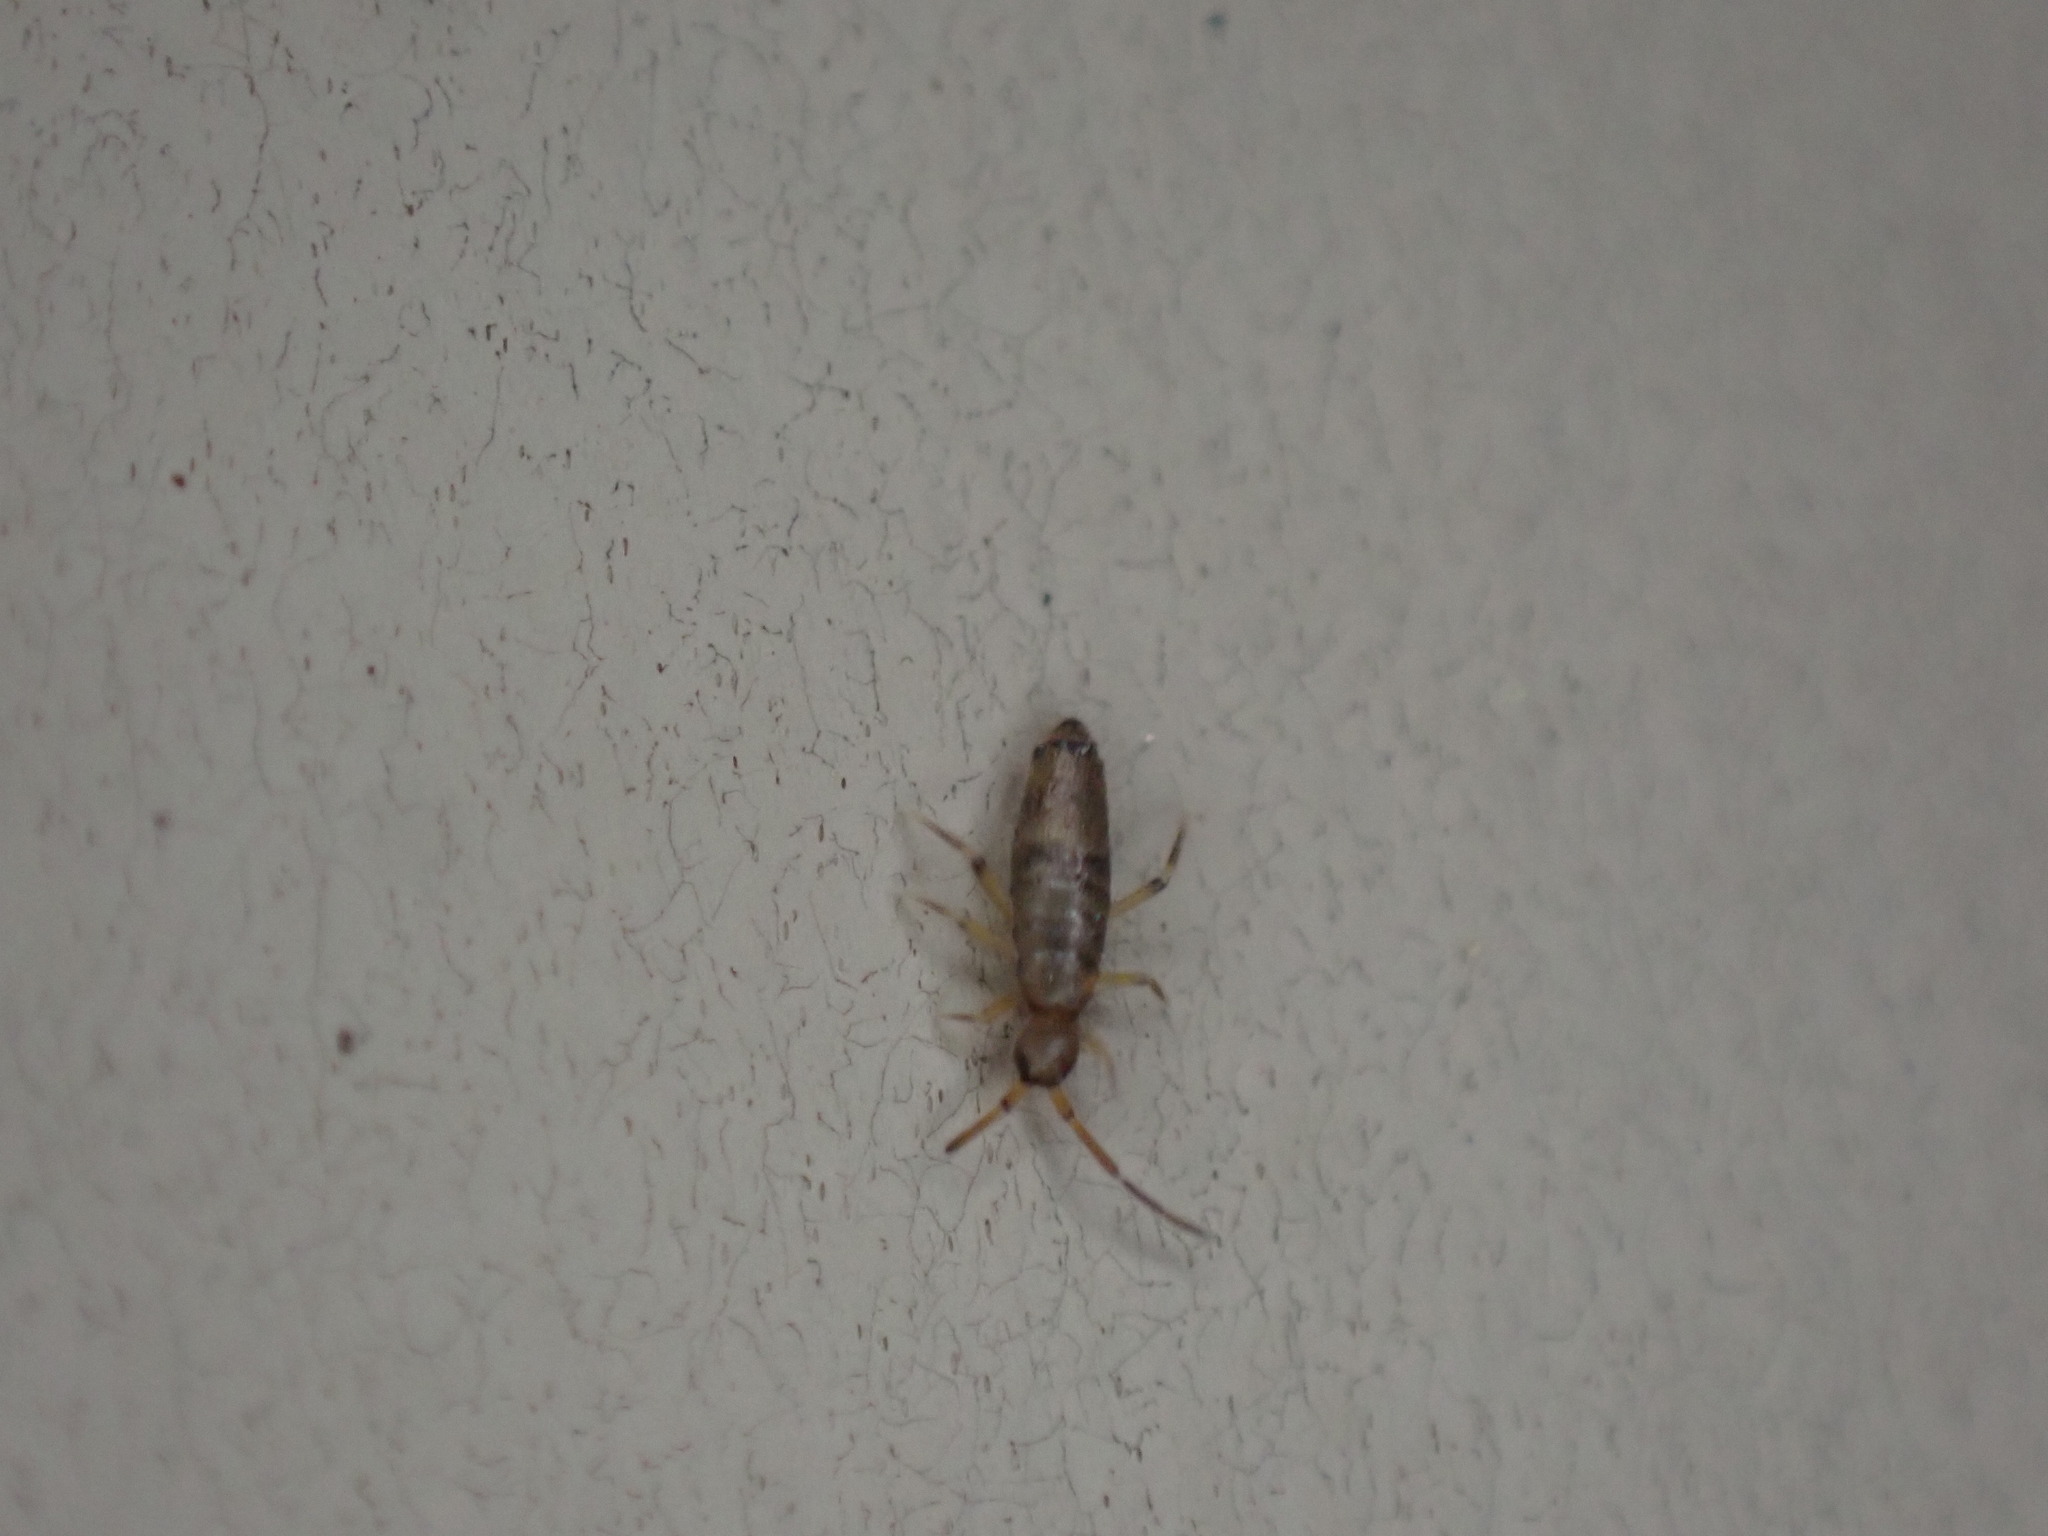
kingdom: Animalia
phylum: Arthropoda
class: Collembola
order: Entomobryomorpha
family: Entomobryidae
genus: Willowsia
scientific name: Willowsia nigromaculata
